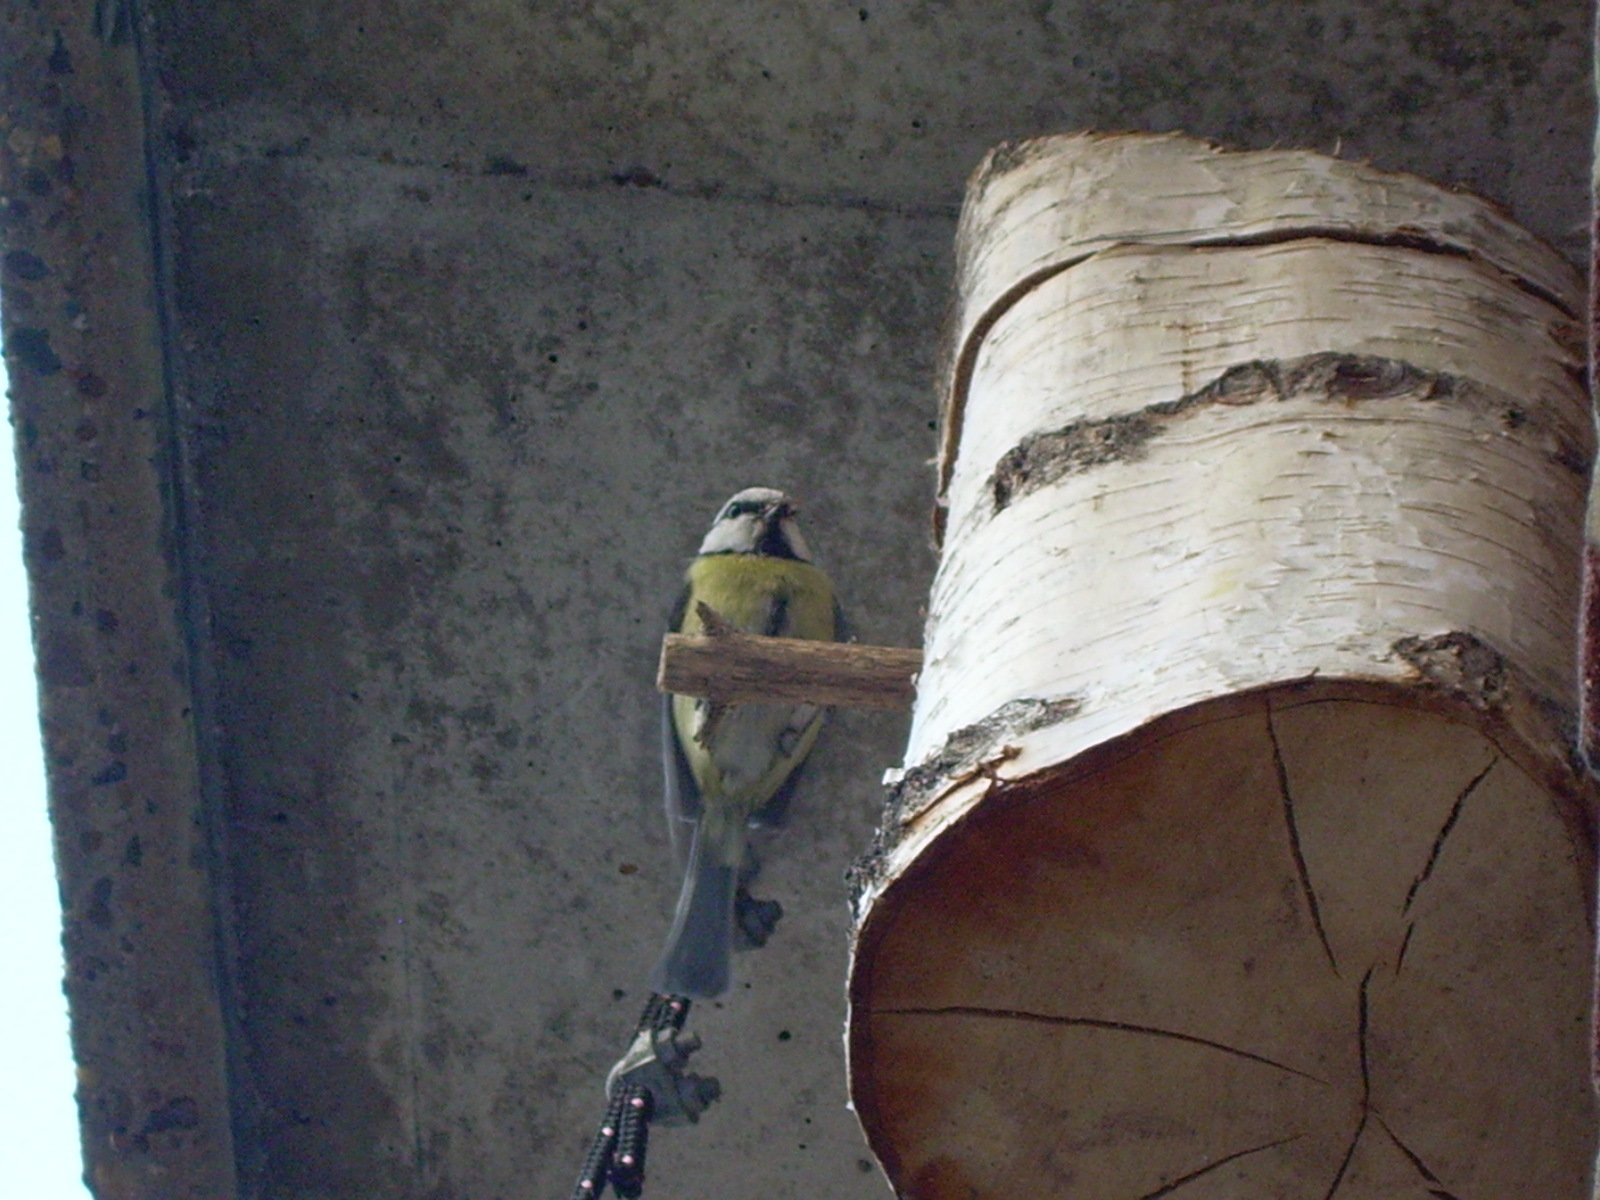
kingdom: Animalia
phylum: Chordata
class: Aves
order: Passeriformes
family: Paridae
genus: Cyanistes
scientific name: Cyanistes caeruleus
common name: Eurasian blue tit
